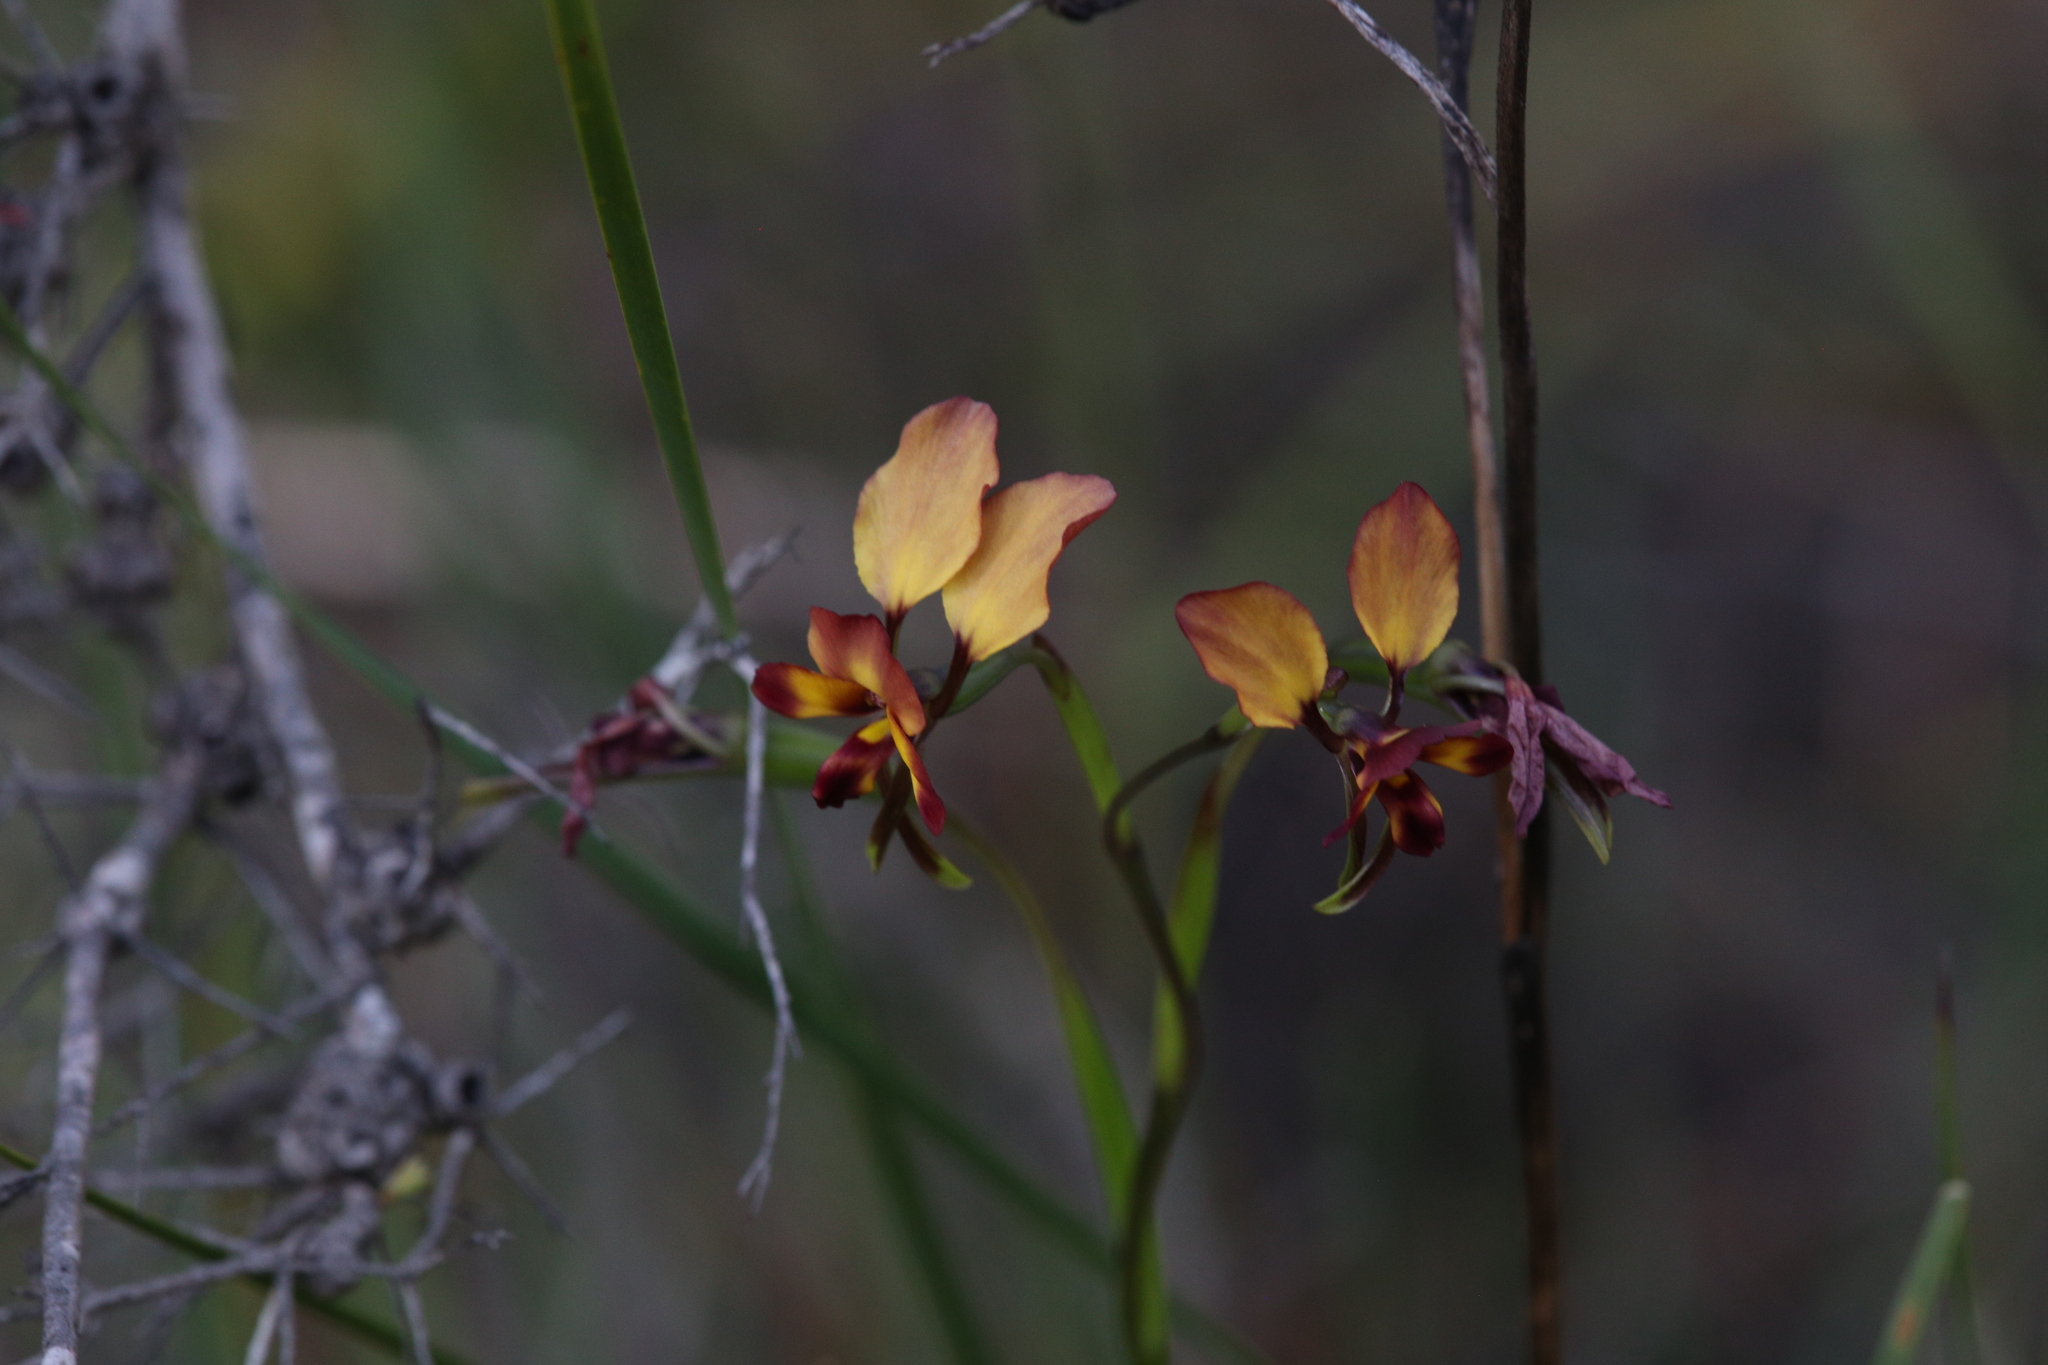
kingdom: Plantae
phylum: Tracheophyta
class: Liliopsida
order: Asparagales
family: Orchidaceae
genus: Diuris
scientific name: Diuris cruenta
